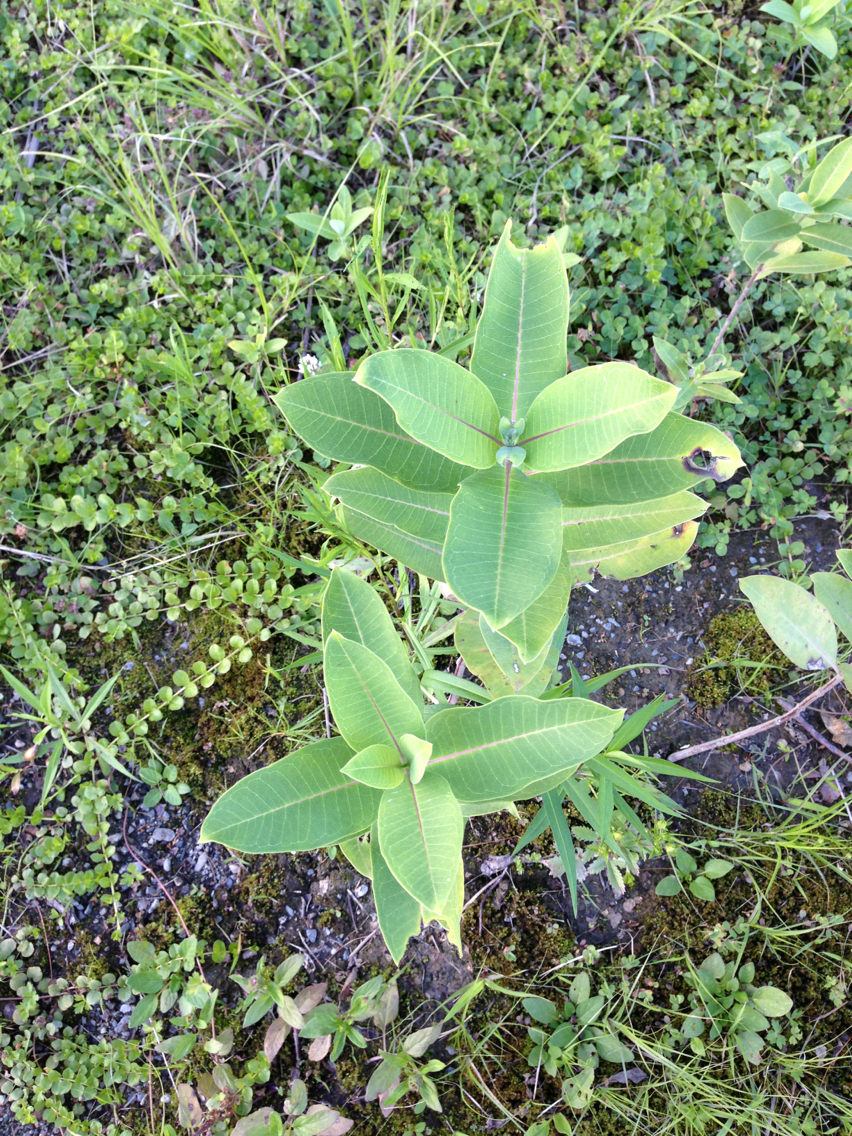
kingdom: Plantae
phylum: Tracheophyta
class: Magnoliopsida
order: Gentianales
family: Apocynaceae
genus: Asclepias
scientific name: Asclepias syriaca
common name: Common milkweed
